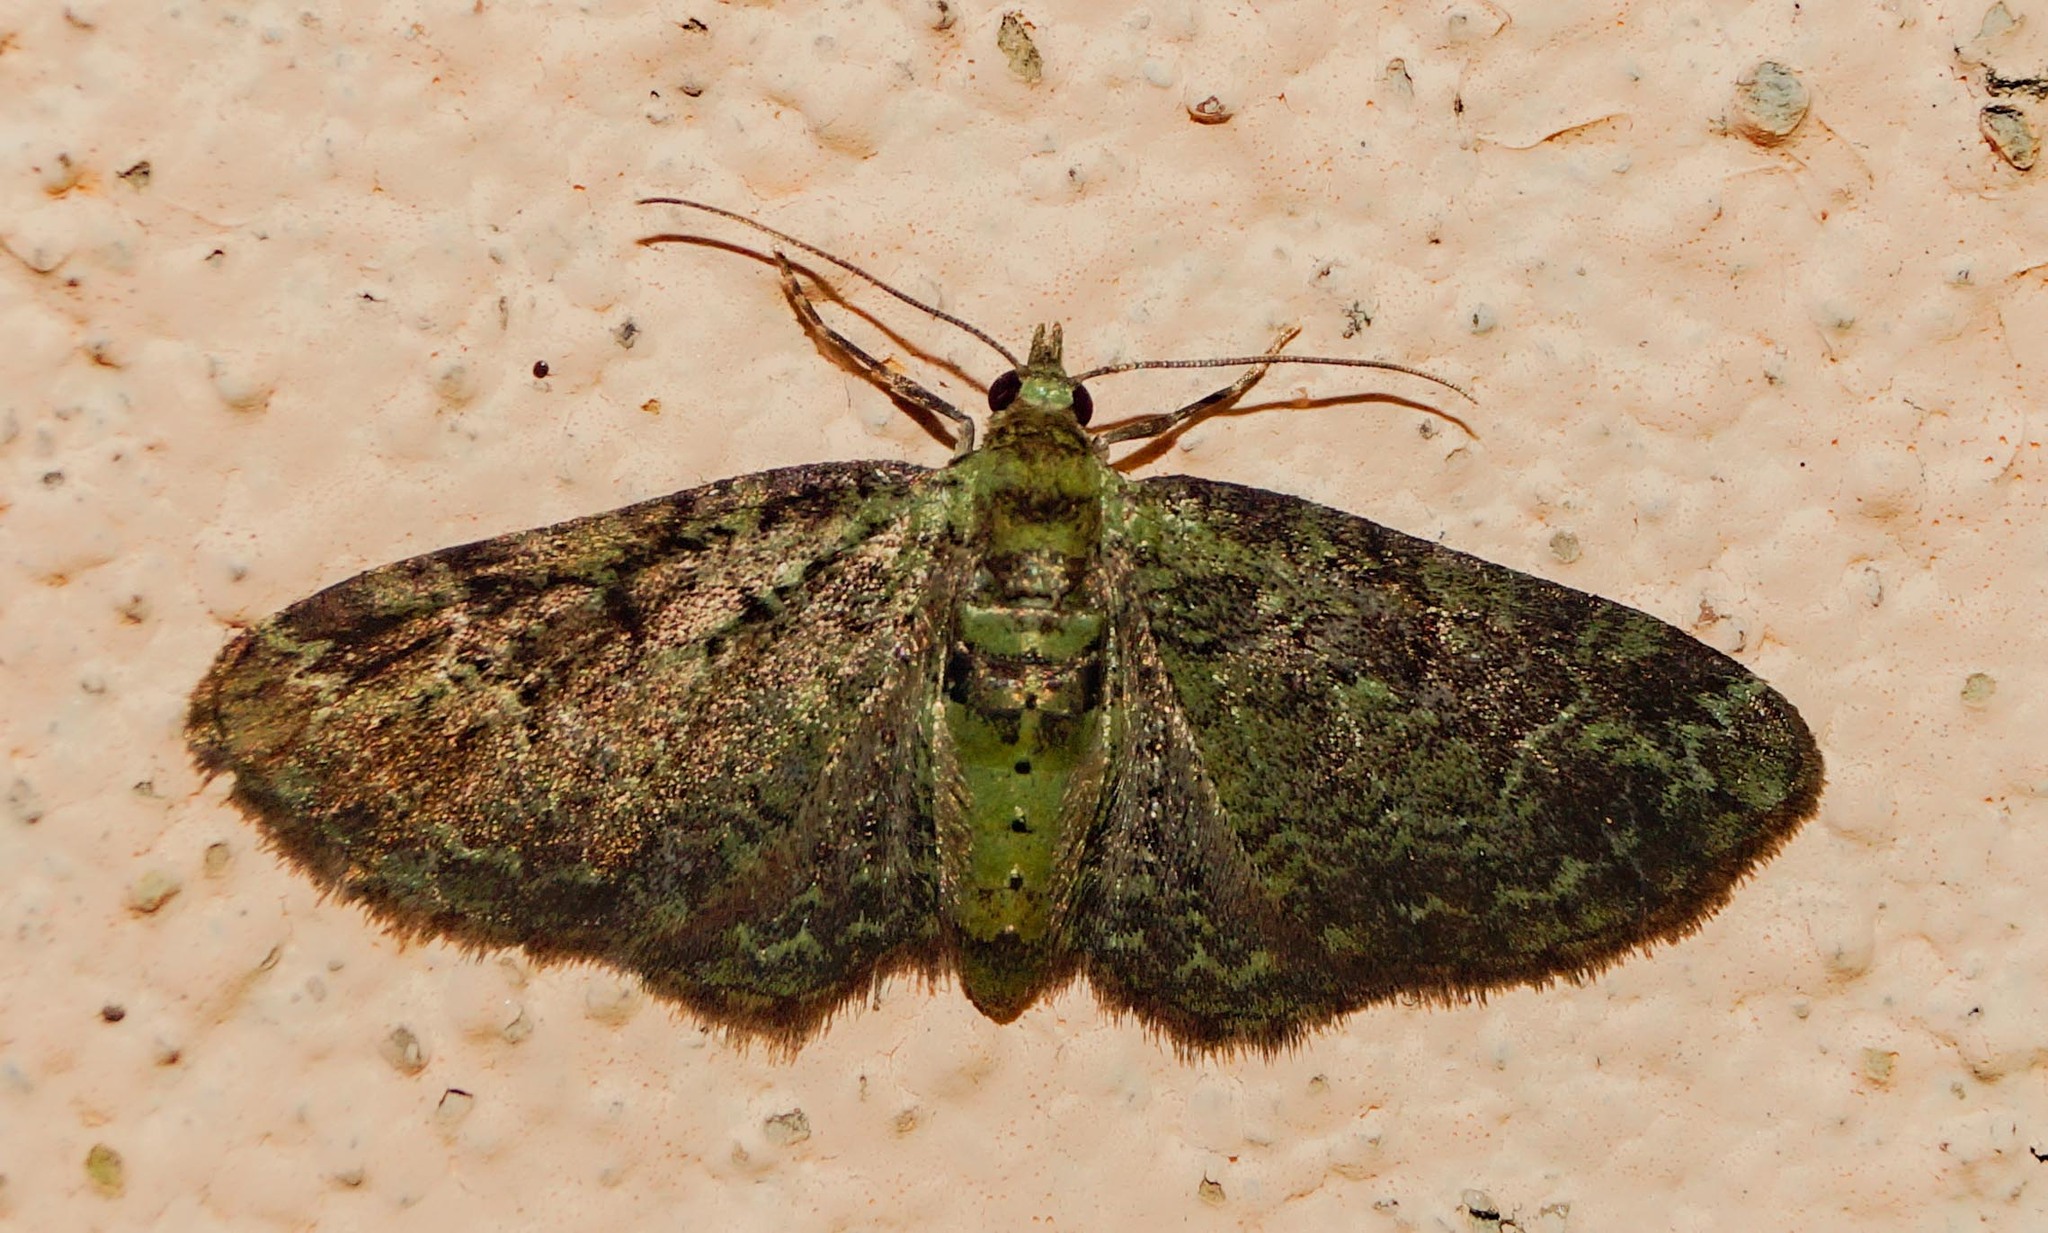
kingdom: Animalia
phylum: Arthropoda
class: Insecta
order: Lepidoptera
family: Geometridae
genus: Pasiphila
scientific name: Pasiphila rectangulata
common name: Green pug
